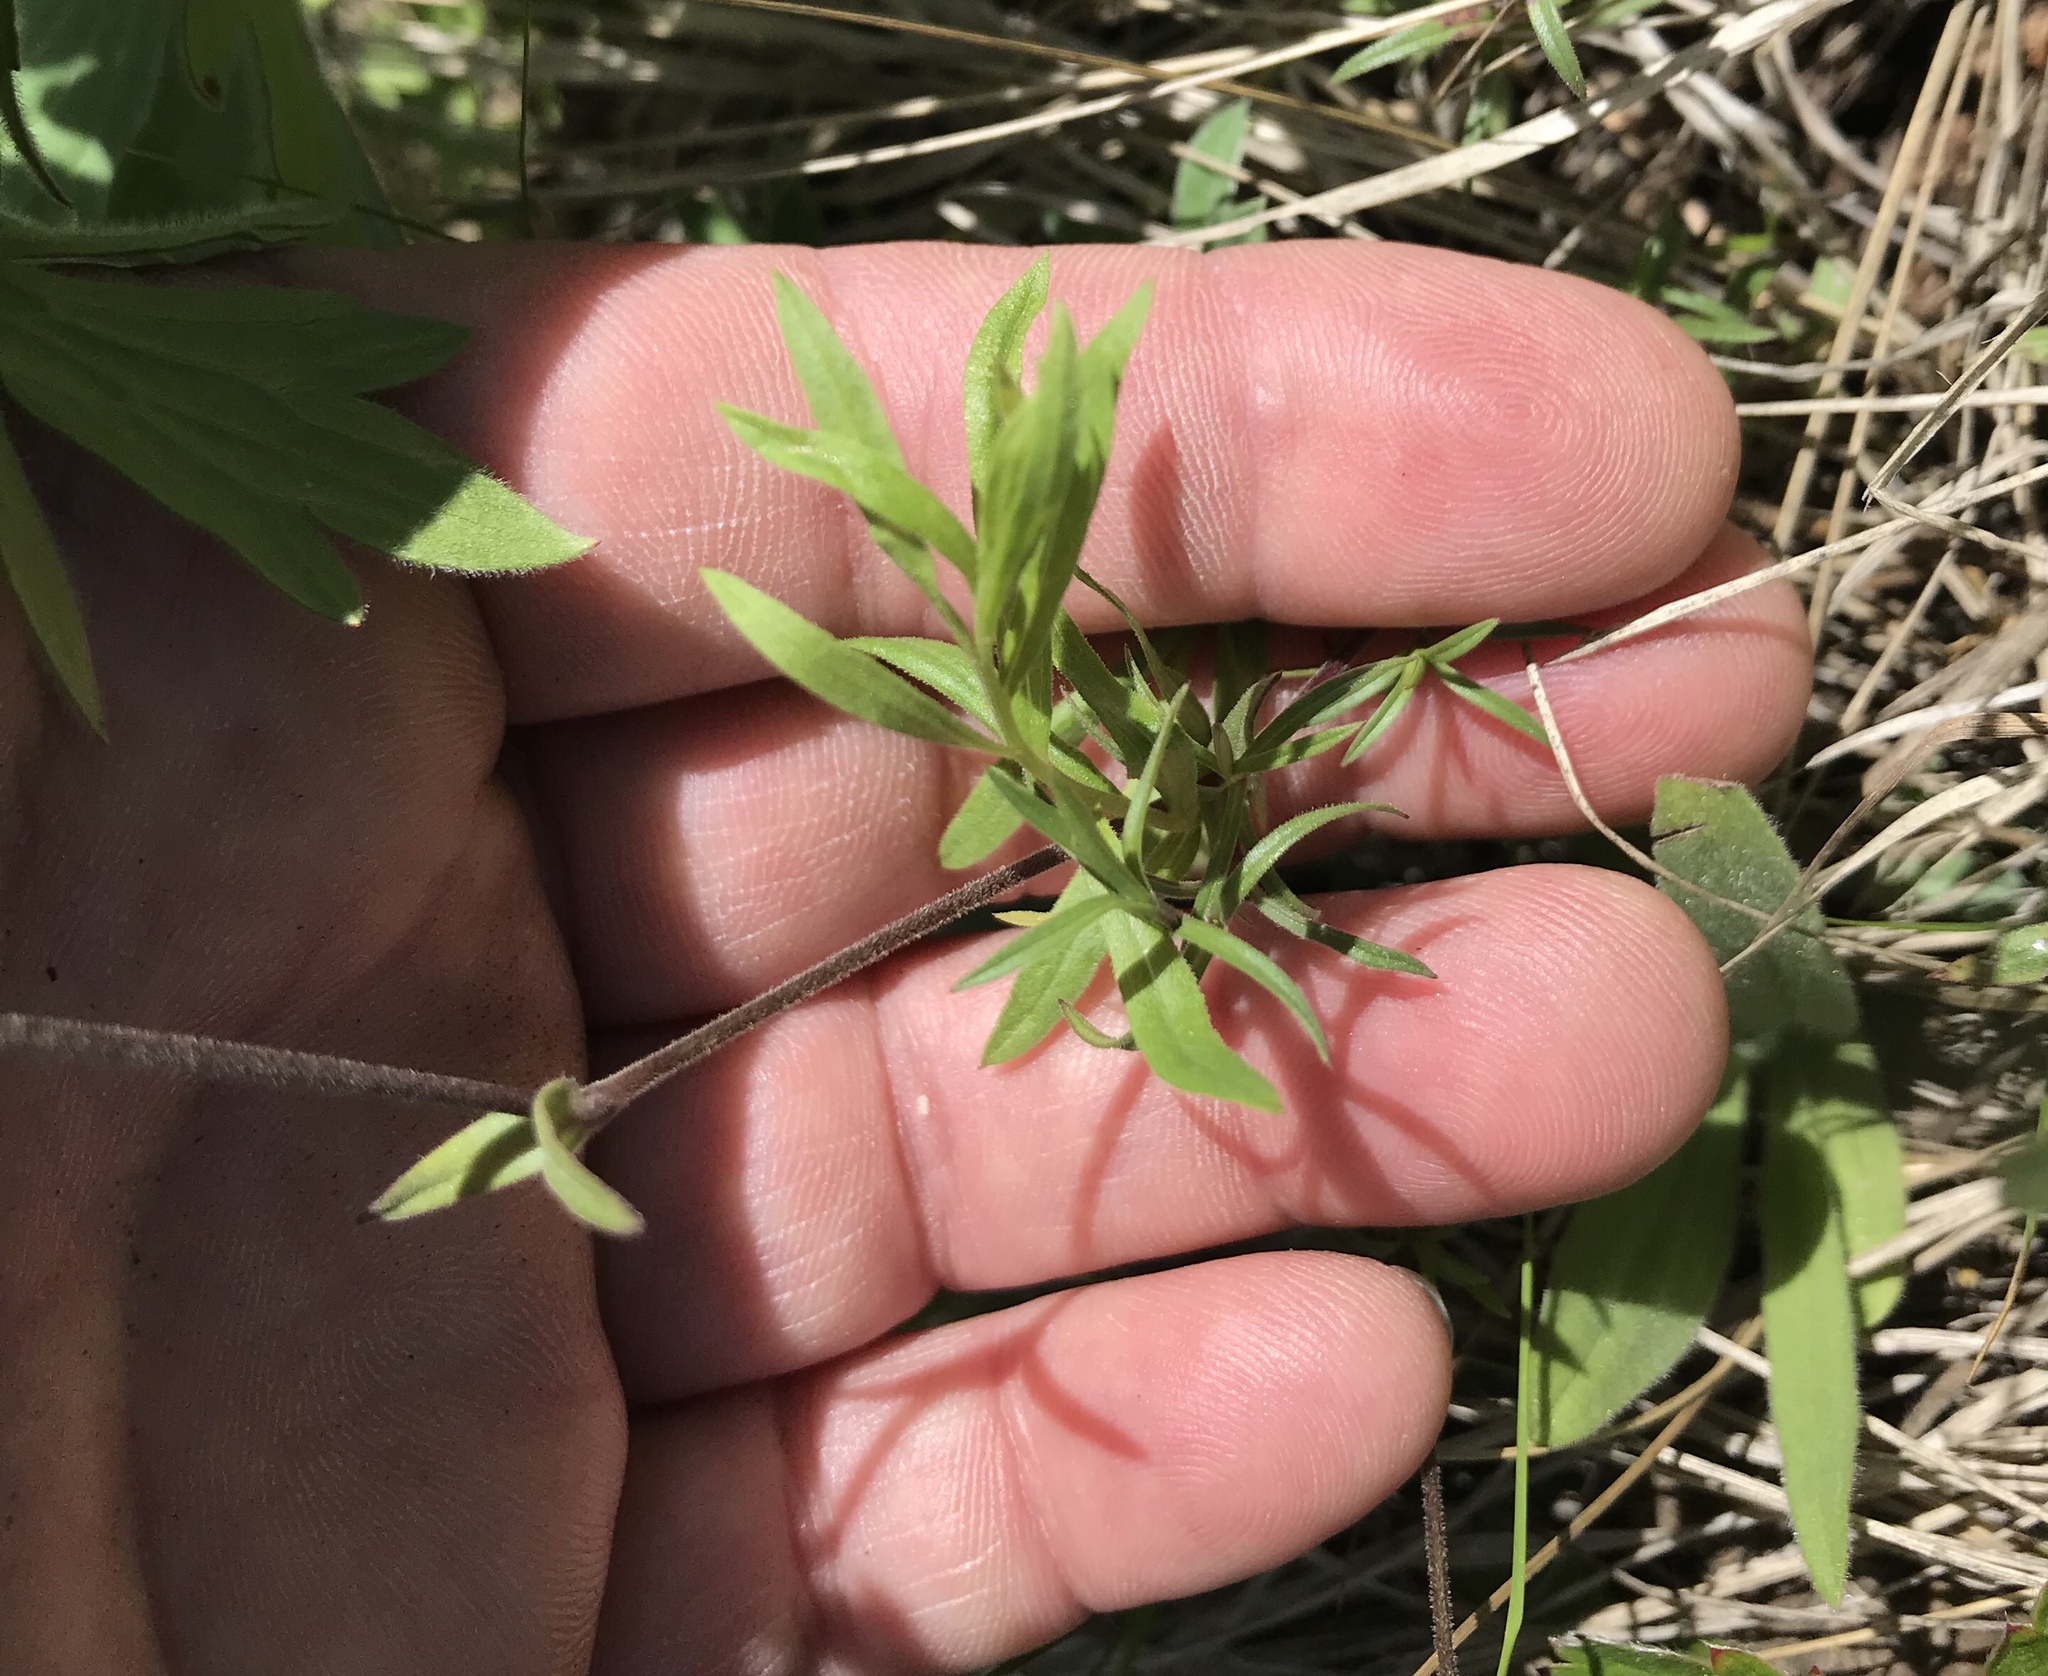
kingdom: Plantae
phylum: Tracheophyta
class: Magnoliopsida
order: Caryophyllales
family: Caryophyllaceae
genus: Cerastium
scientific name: Cerastium arvense
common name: Field mouse-ear
